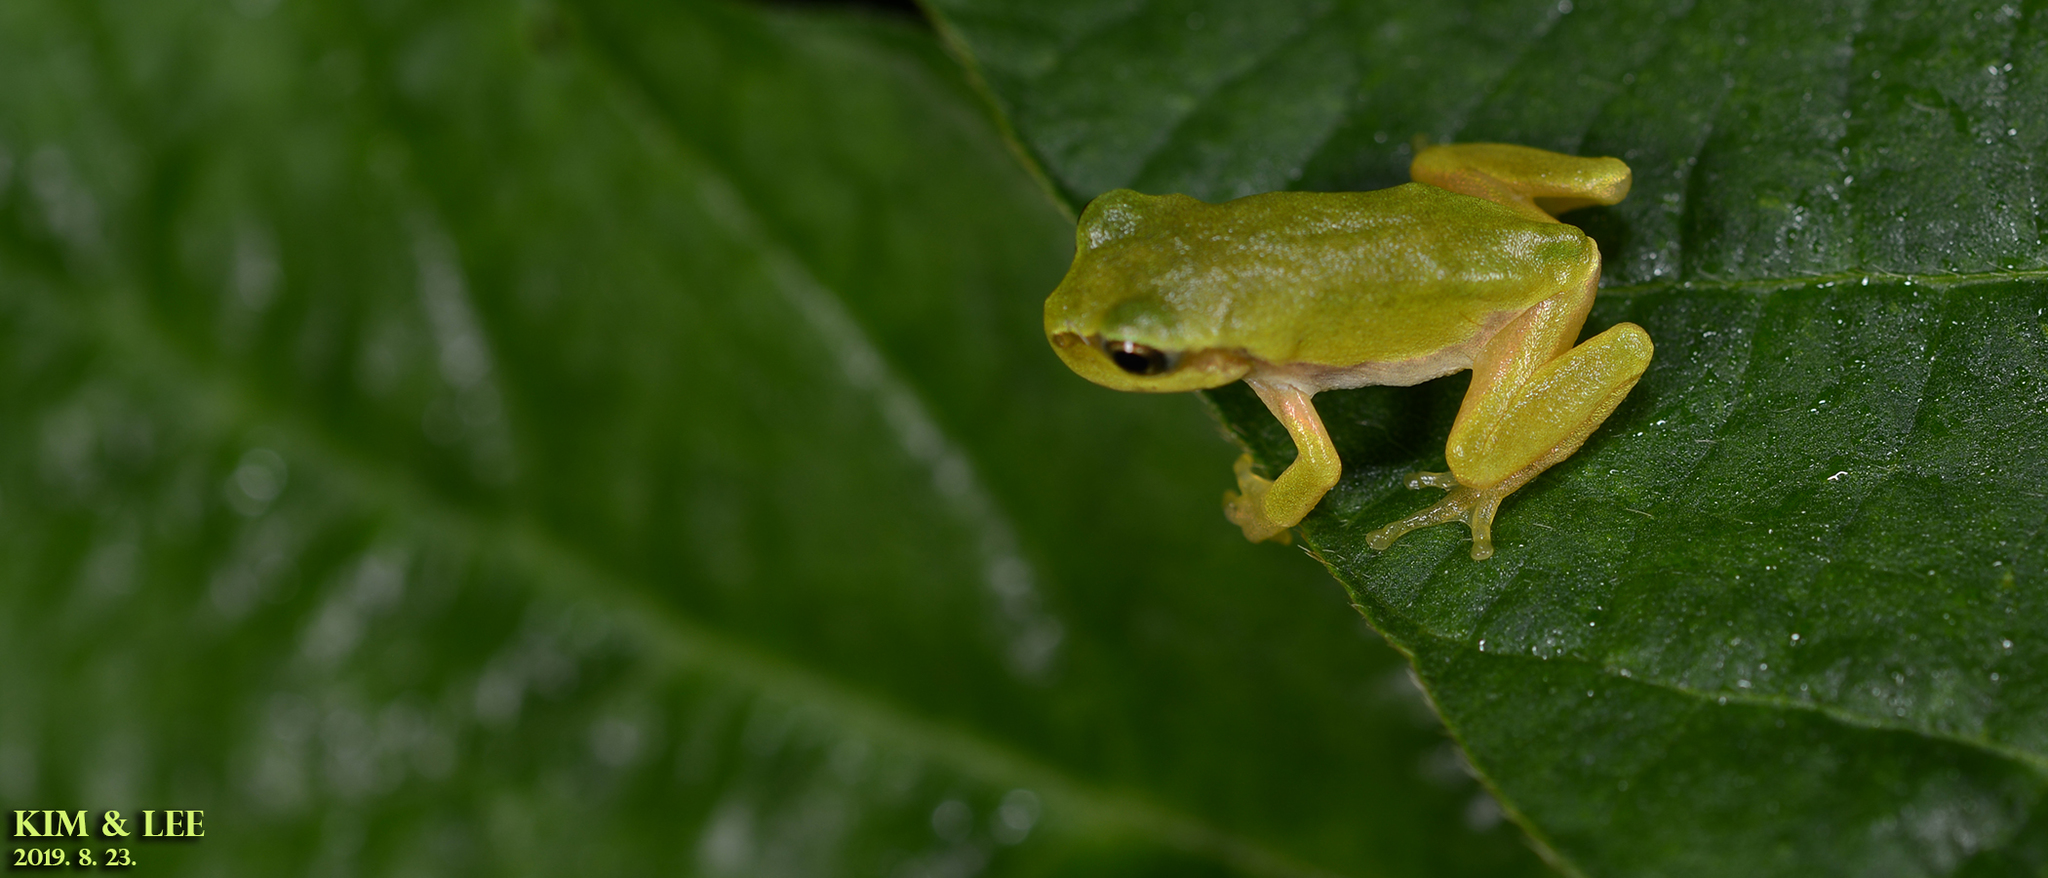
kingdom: Animalia
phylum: Chordata
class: Amphibia
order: Anura
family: Hylidae
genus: Dryophytes
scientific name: Dryophytes japonicus
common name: Japanese treefrog
